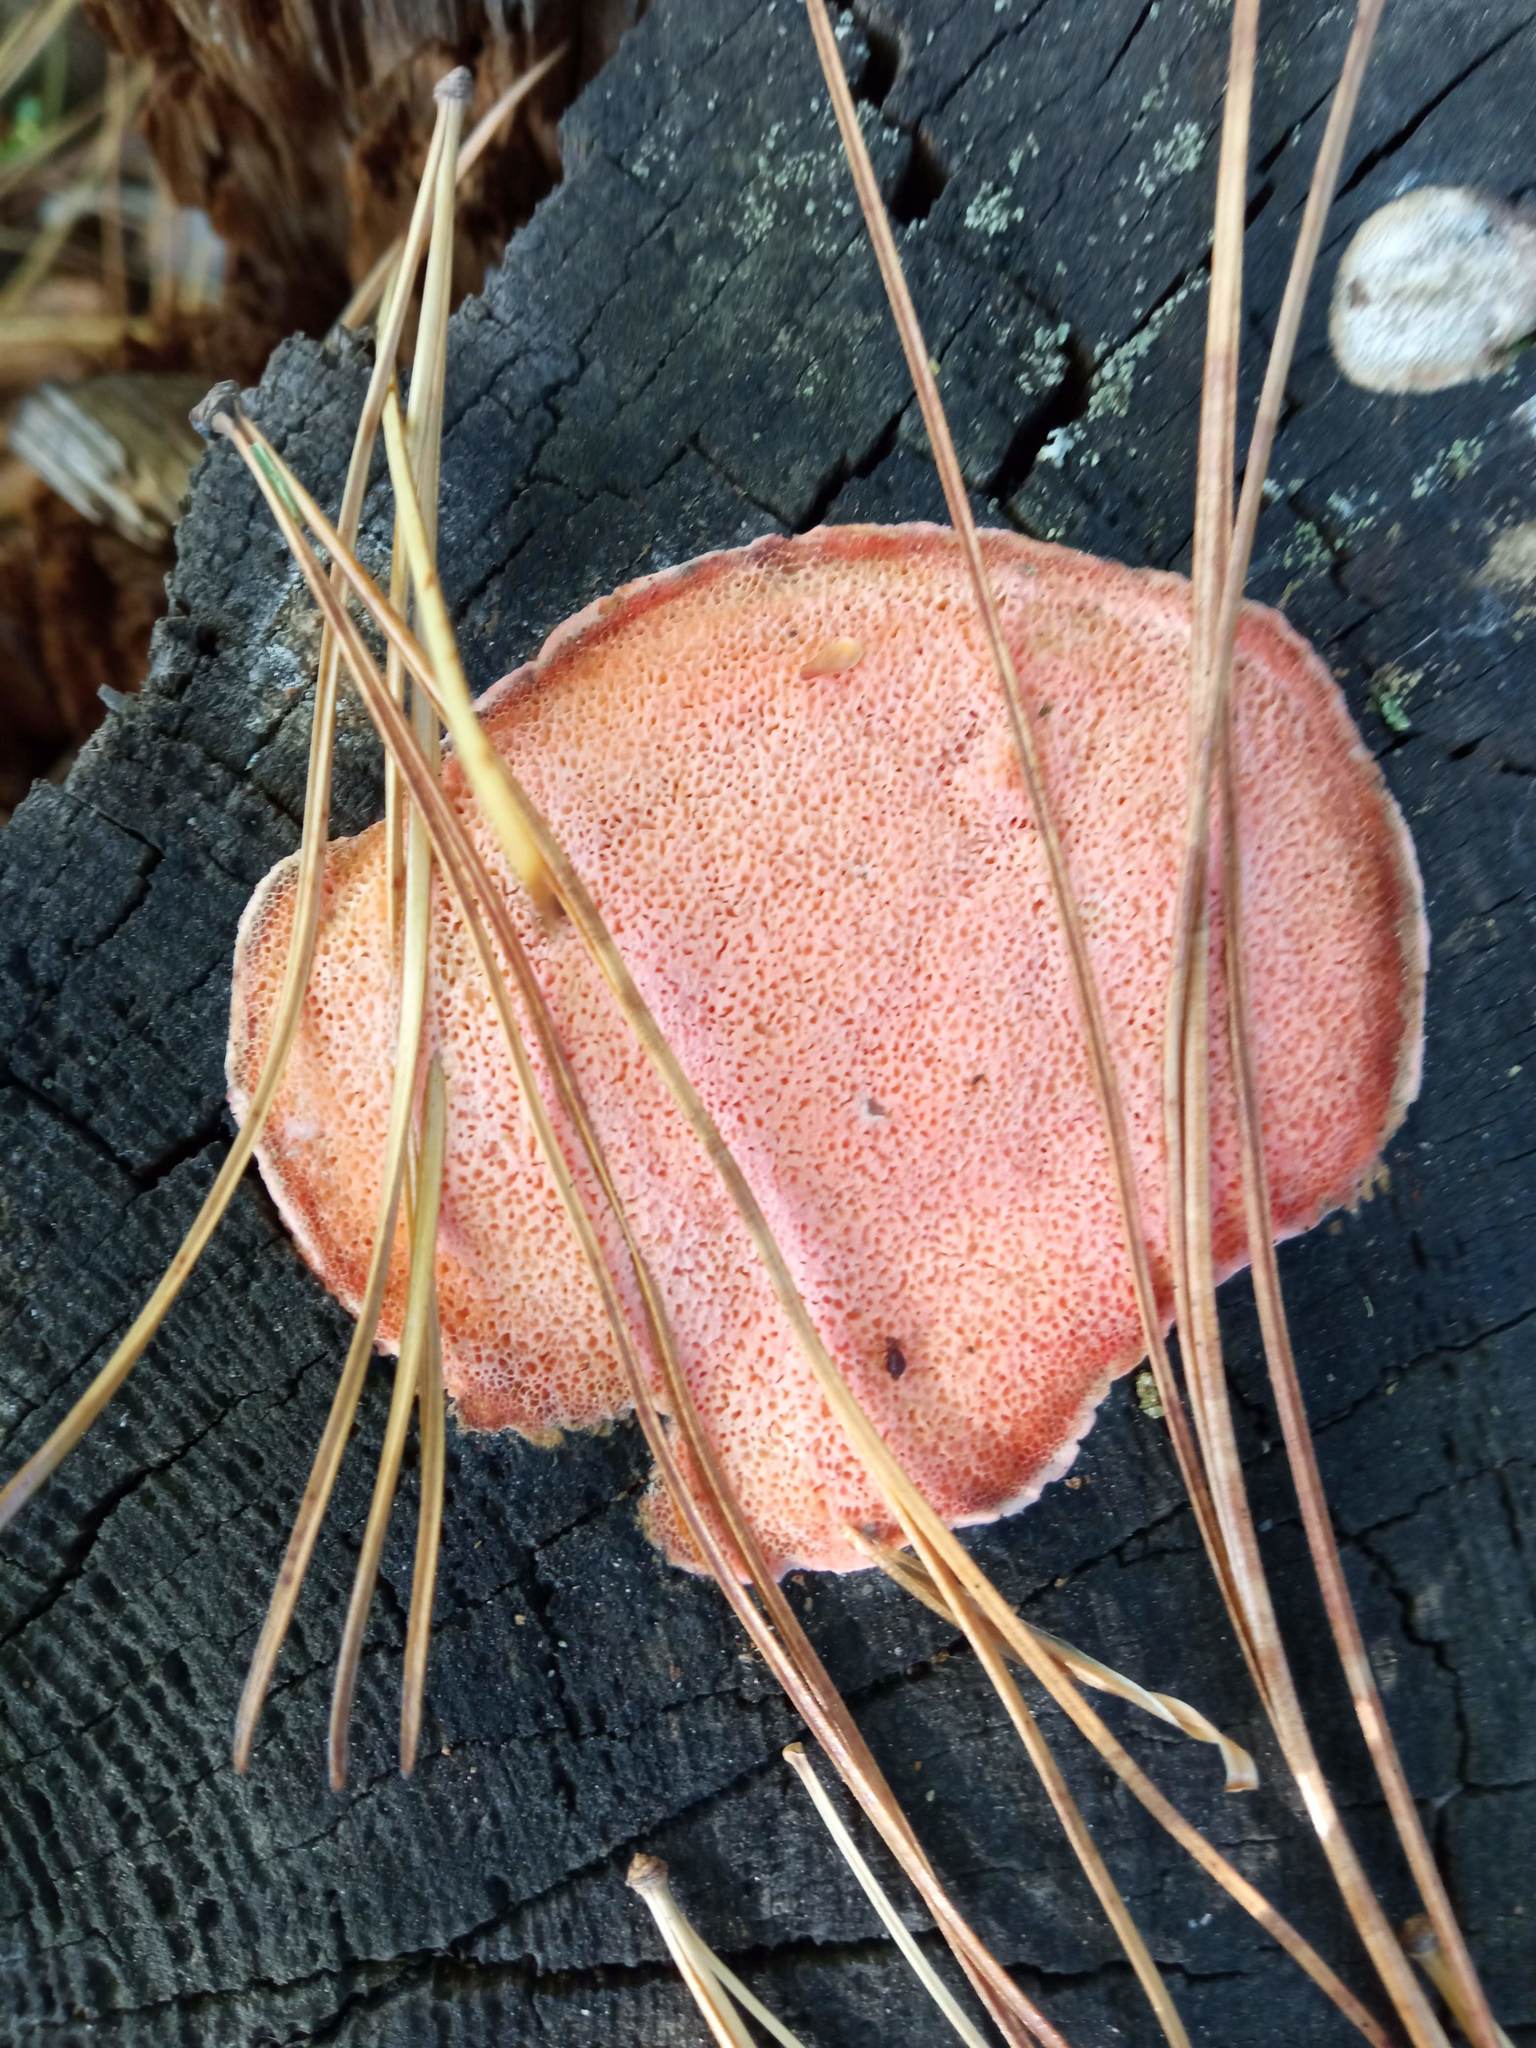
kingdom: Fungi
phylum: Basidiomycota
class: Agaricomycetes
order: Polyporales
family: Polyporaceae
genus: Rhodonia
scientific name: Rhodonia placenta
